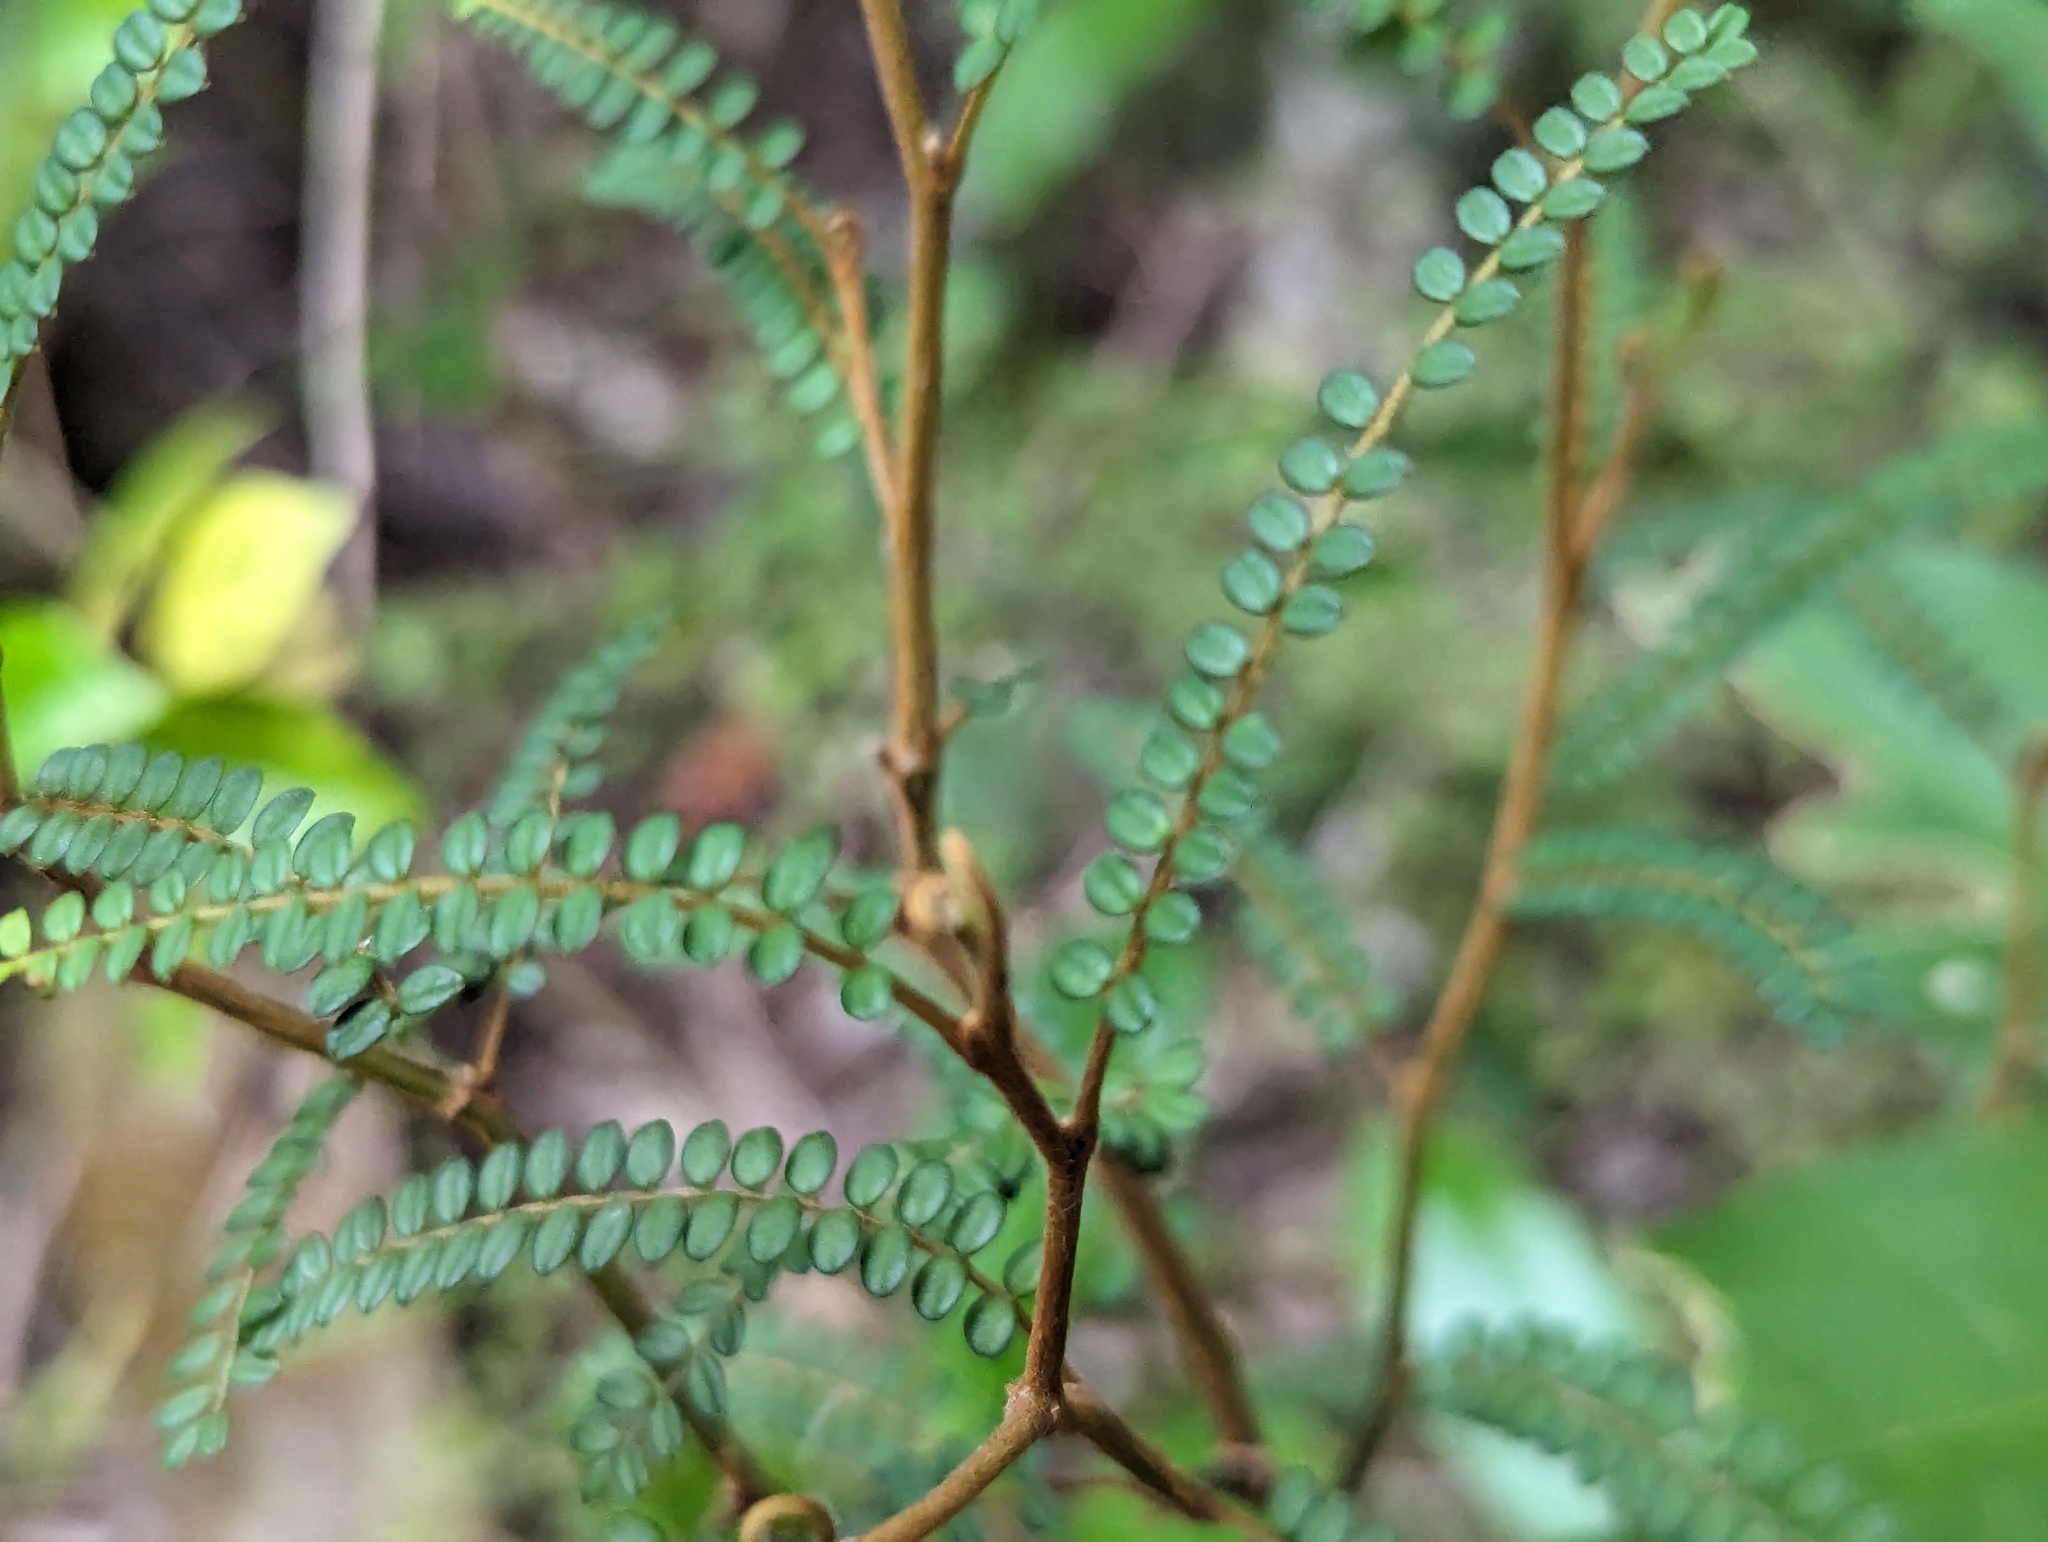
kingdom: Plantae
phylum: Tracheophyta
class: Magnoliopsida
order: Fabales
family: Fabaceae
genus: Sophora
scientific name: Sophora fulvida
